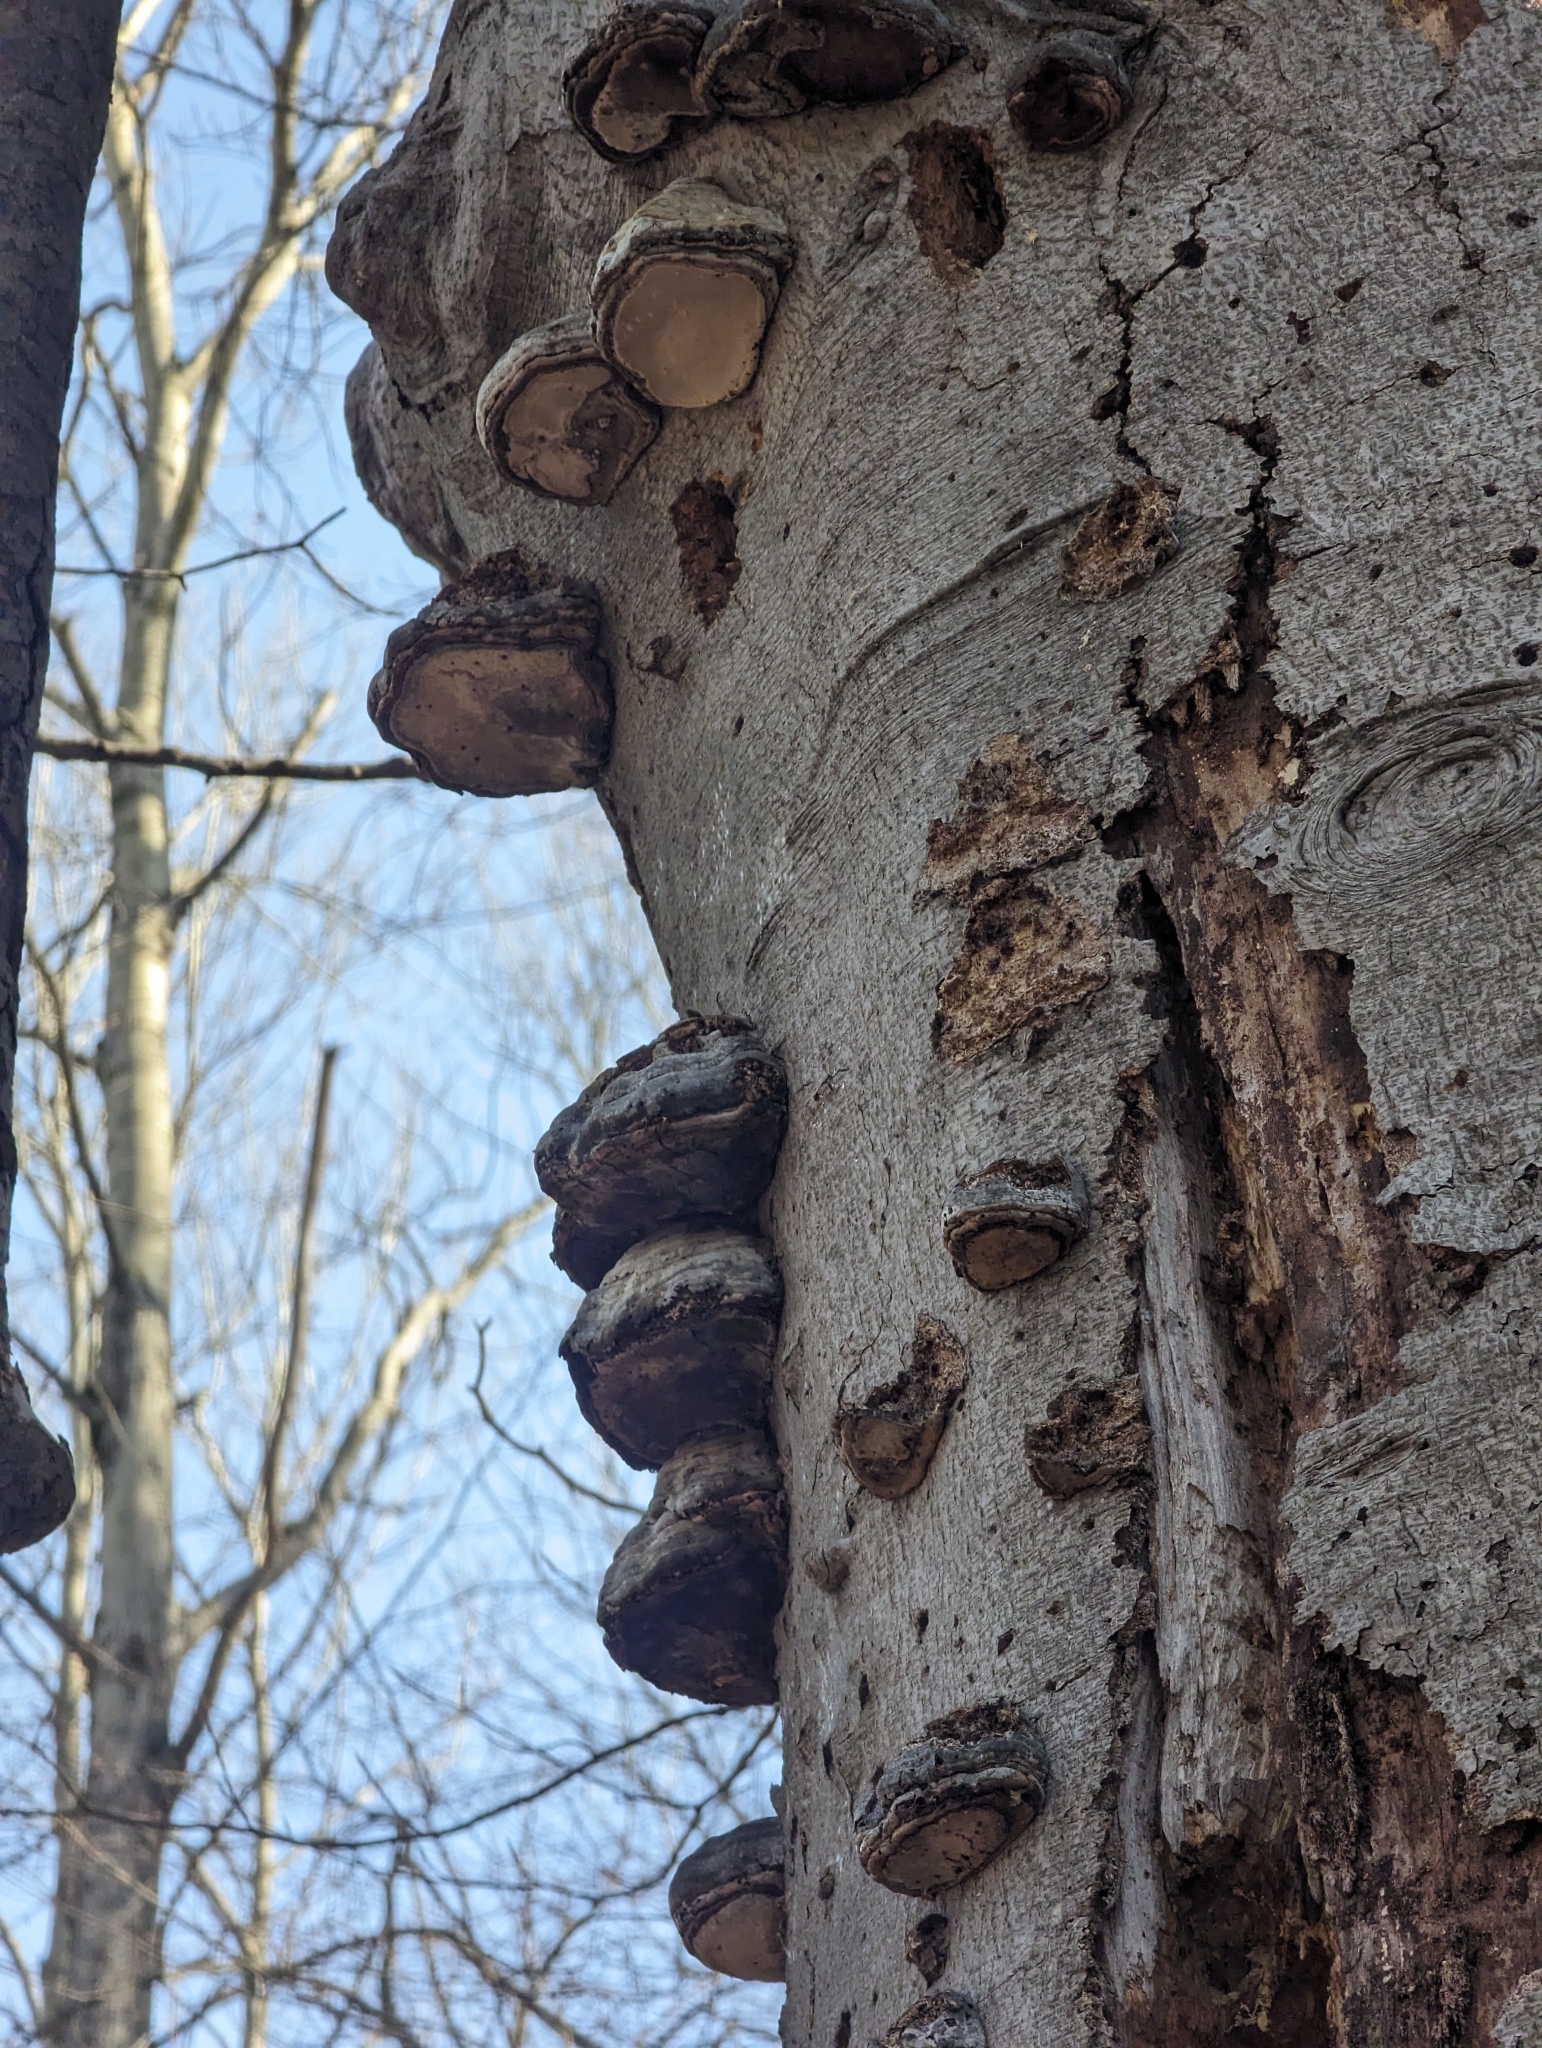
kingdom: Fungi
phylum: Basidiomycota
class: Agaricomycetes
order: Polyporales
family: Polyporaceae
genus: Fomes
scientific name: Fomes fomentarius
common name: Hoof fungus
